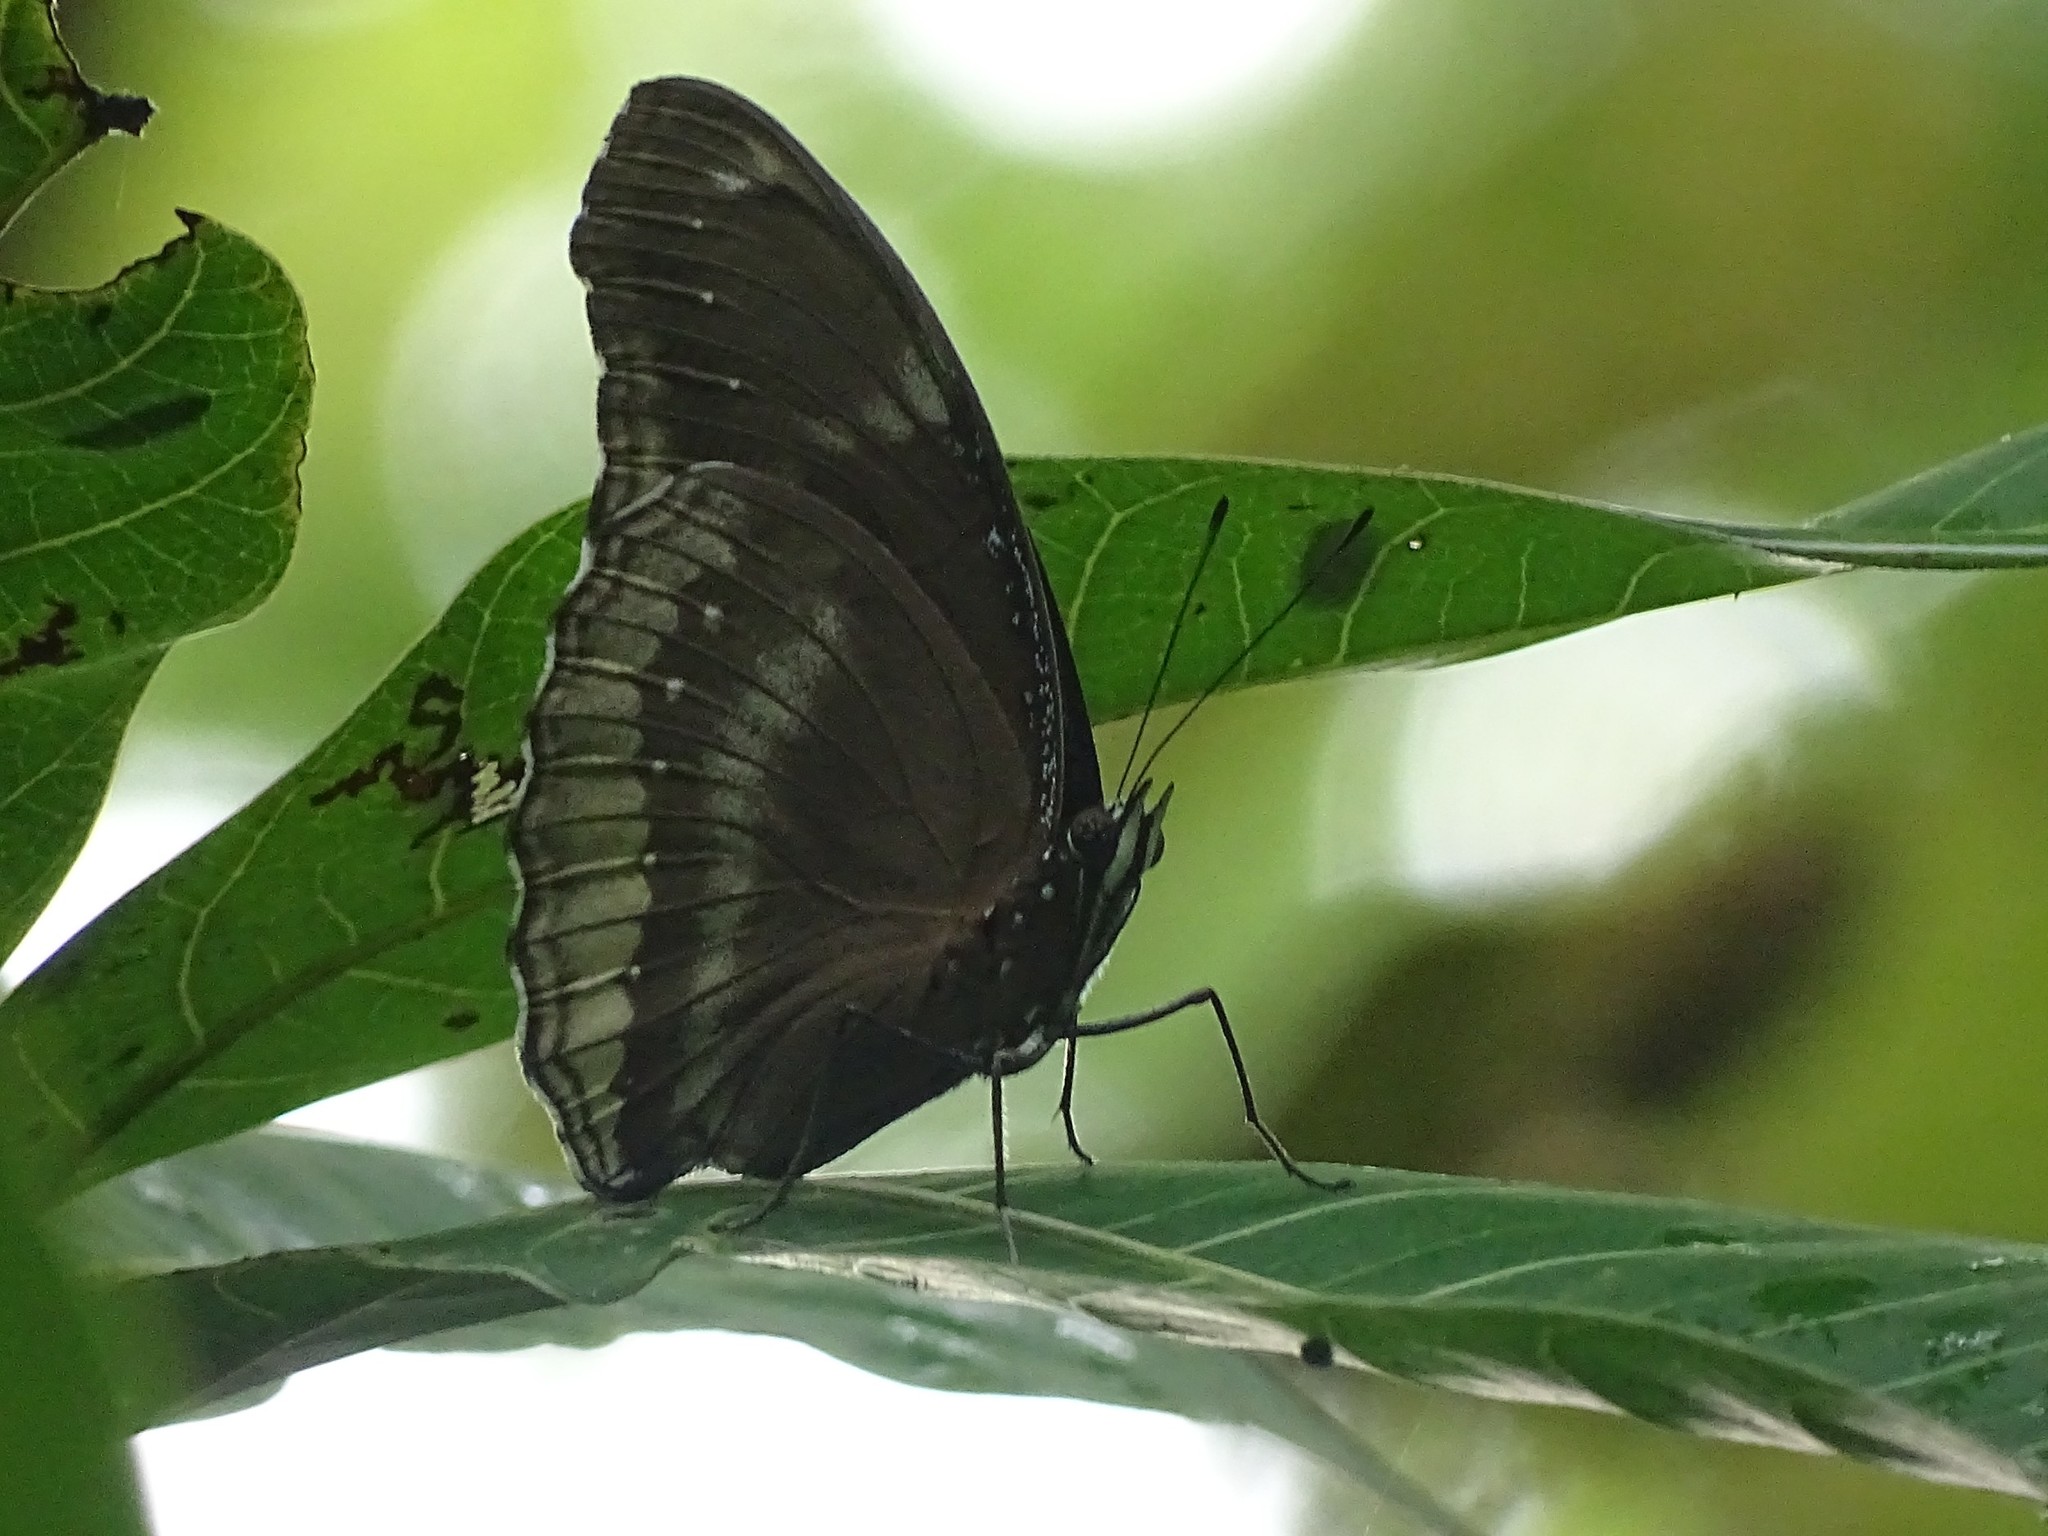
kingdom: Animalia
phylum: Arthropoda
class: Insecta
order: Lepidoptera
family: Nymphalidae
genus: Hypolimnas
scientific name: Hypolimnas bolina
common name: Great eggfly
